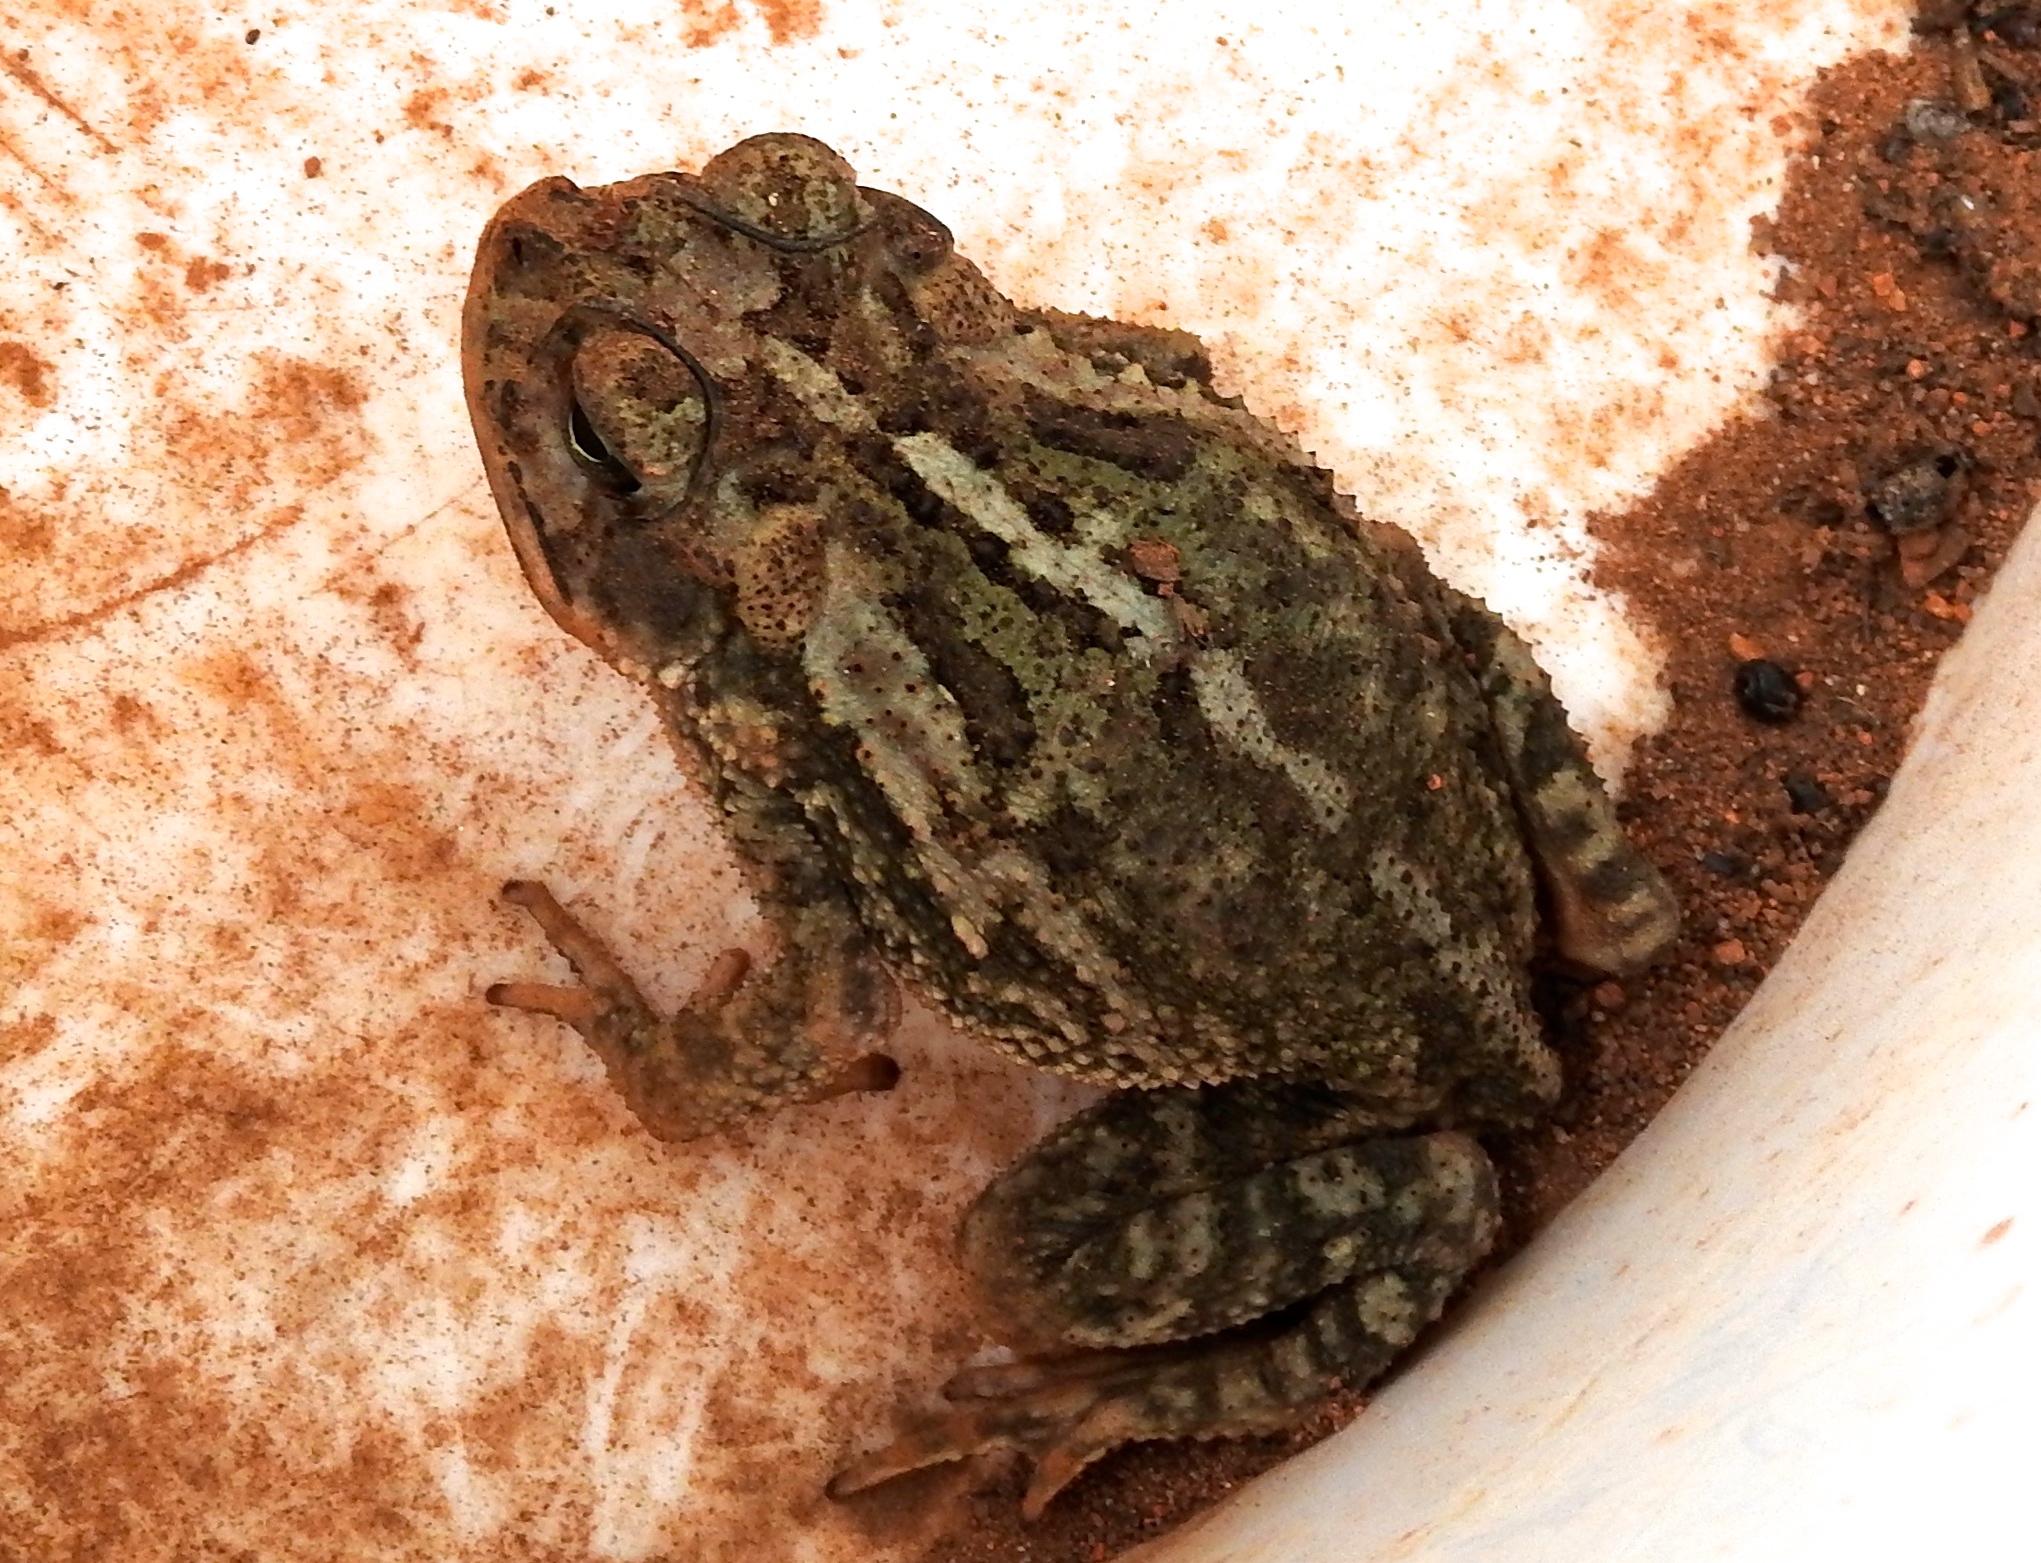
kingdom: Animalia
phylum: Chordata
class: Amphibia
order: Anura
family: Bufonidae
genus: Incilius
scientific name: Incilius mazatlanensis
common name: Sinaloa toad
